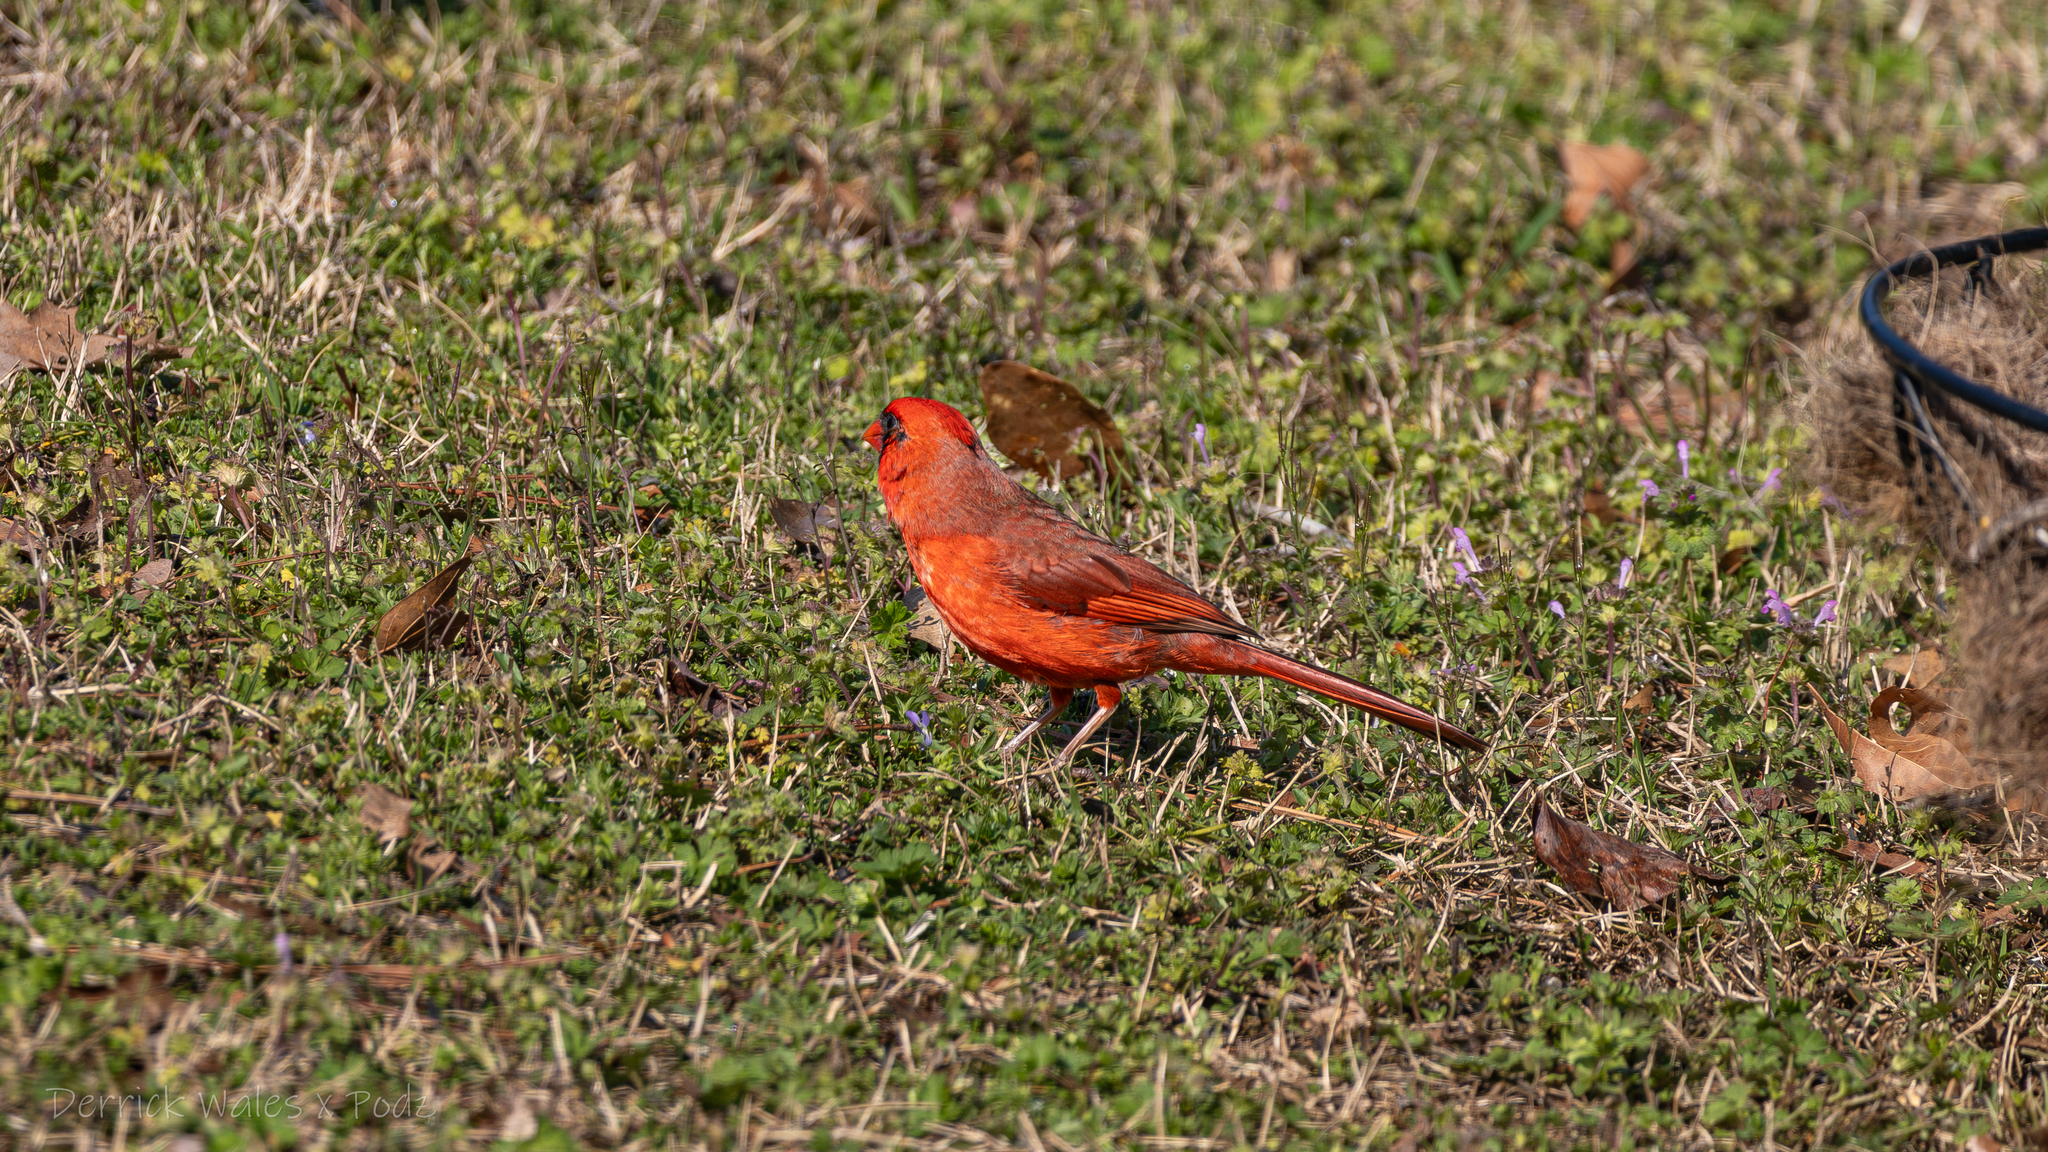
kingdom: Animalia
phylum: Chordata
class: Aves
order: Passeriformes
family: Cardinalidae
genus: Cardinalis
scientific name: Cardinalis cardinalis
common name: Northern cardinal
